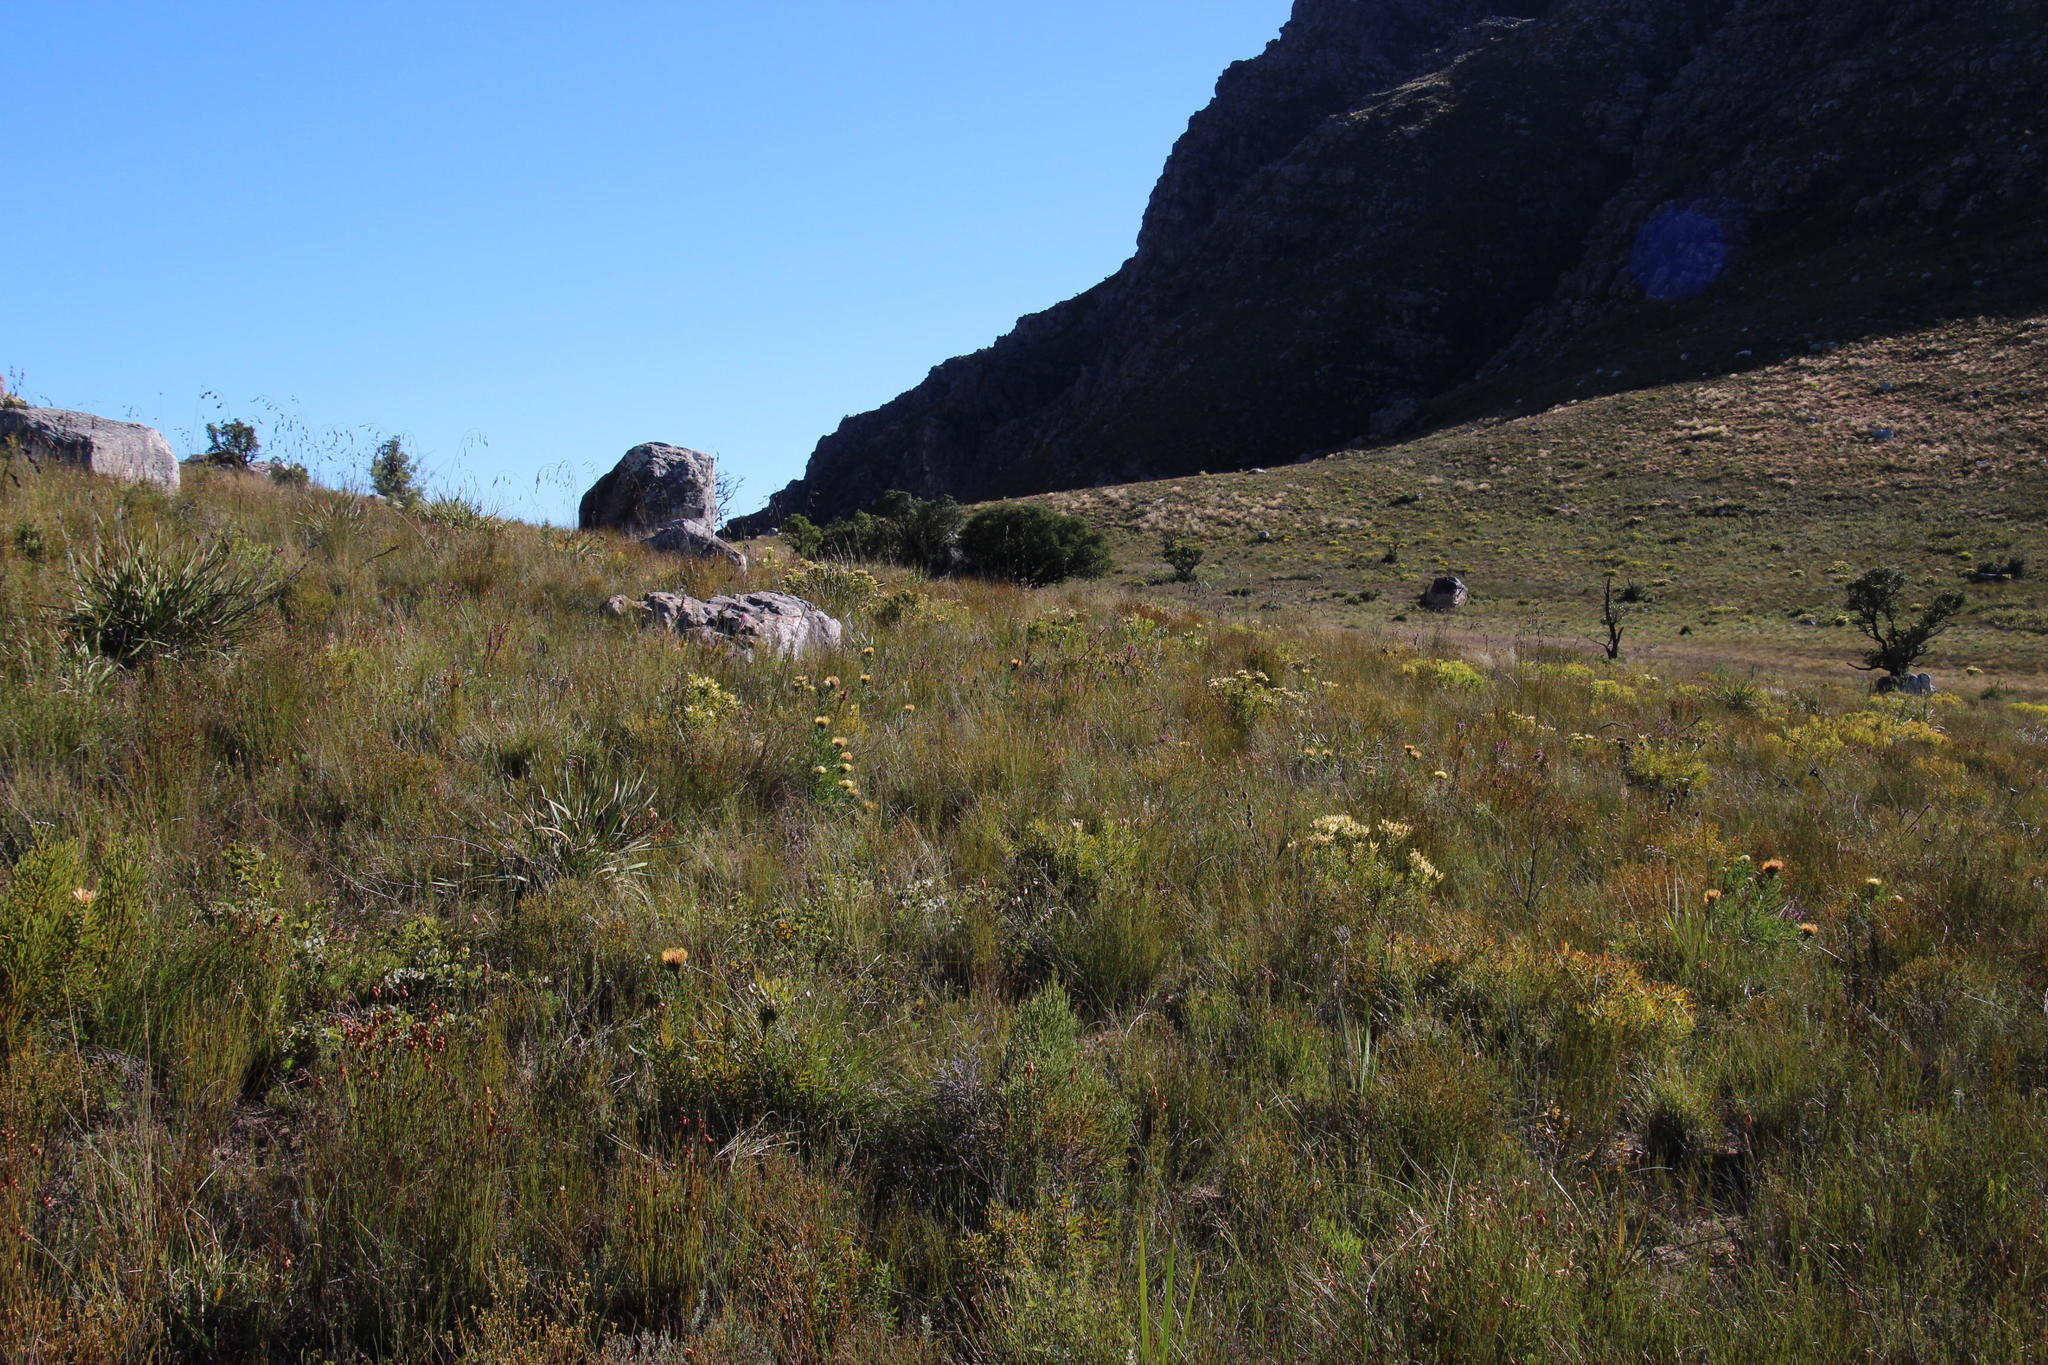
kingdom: Plantae
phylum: Tracheophyta
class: Magnoliopsida
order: Proteales
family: Proteaceae
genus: Leucospermum
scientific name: Leucospermum lineare
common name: Needle-leaf pincushion
